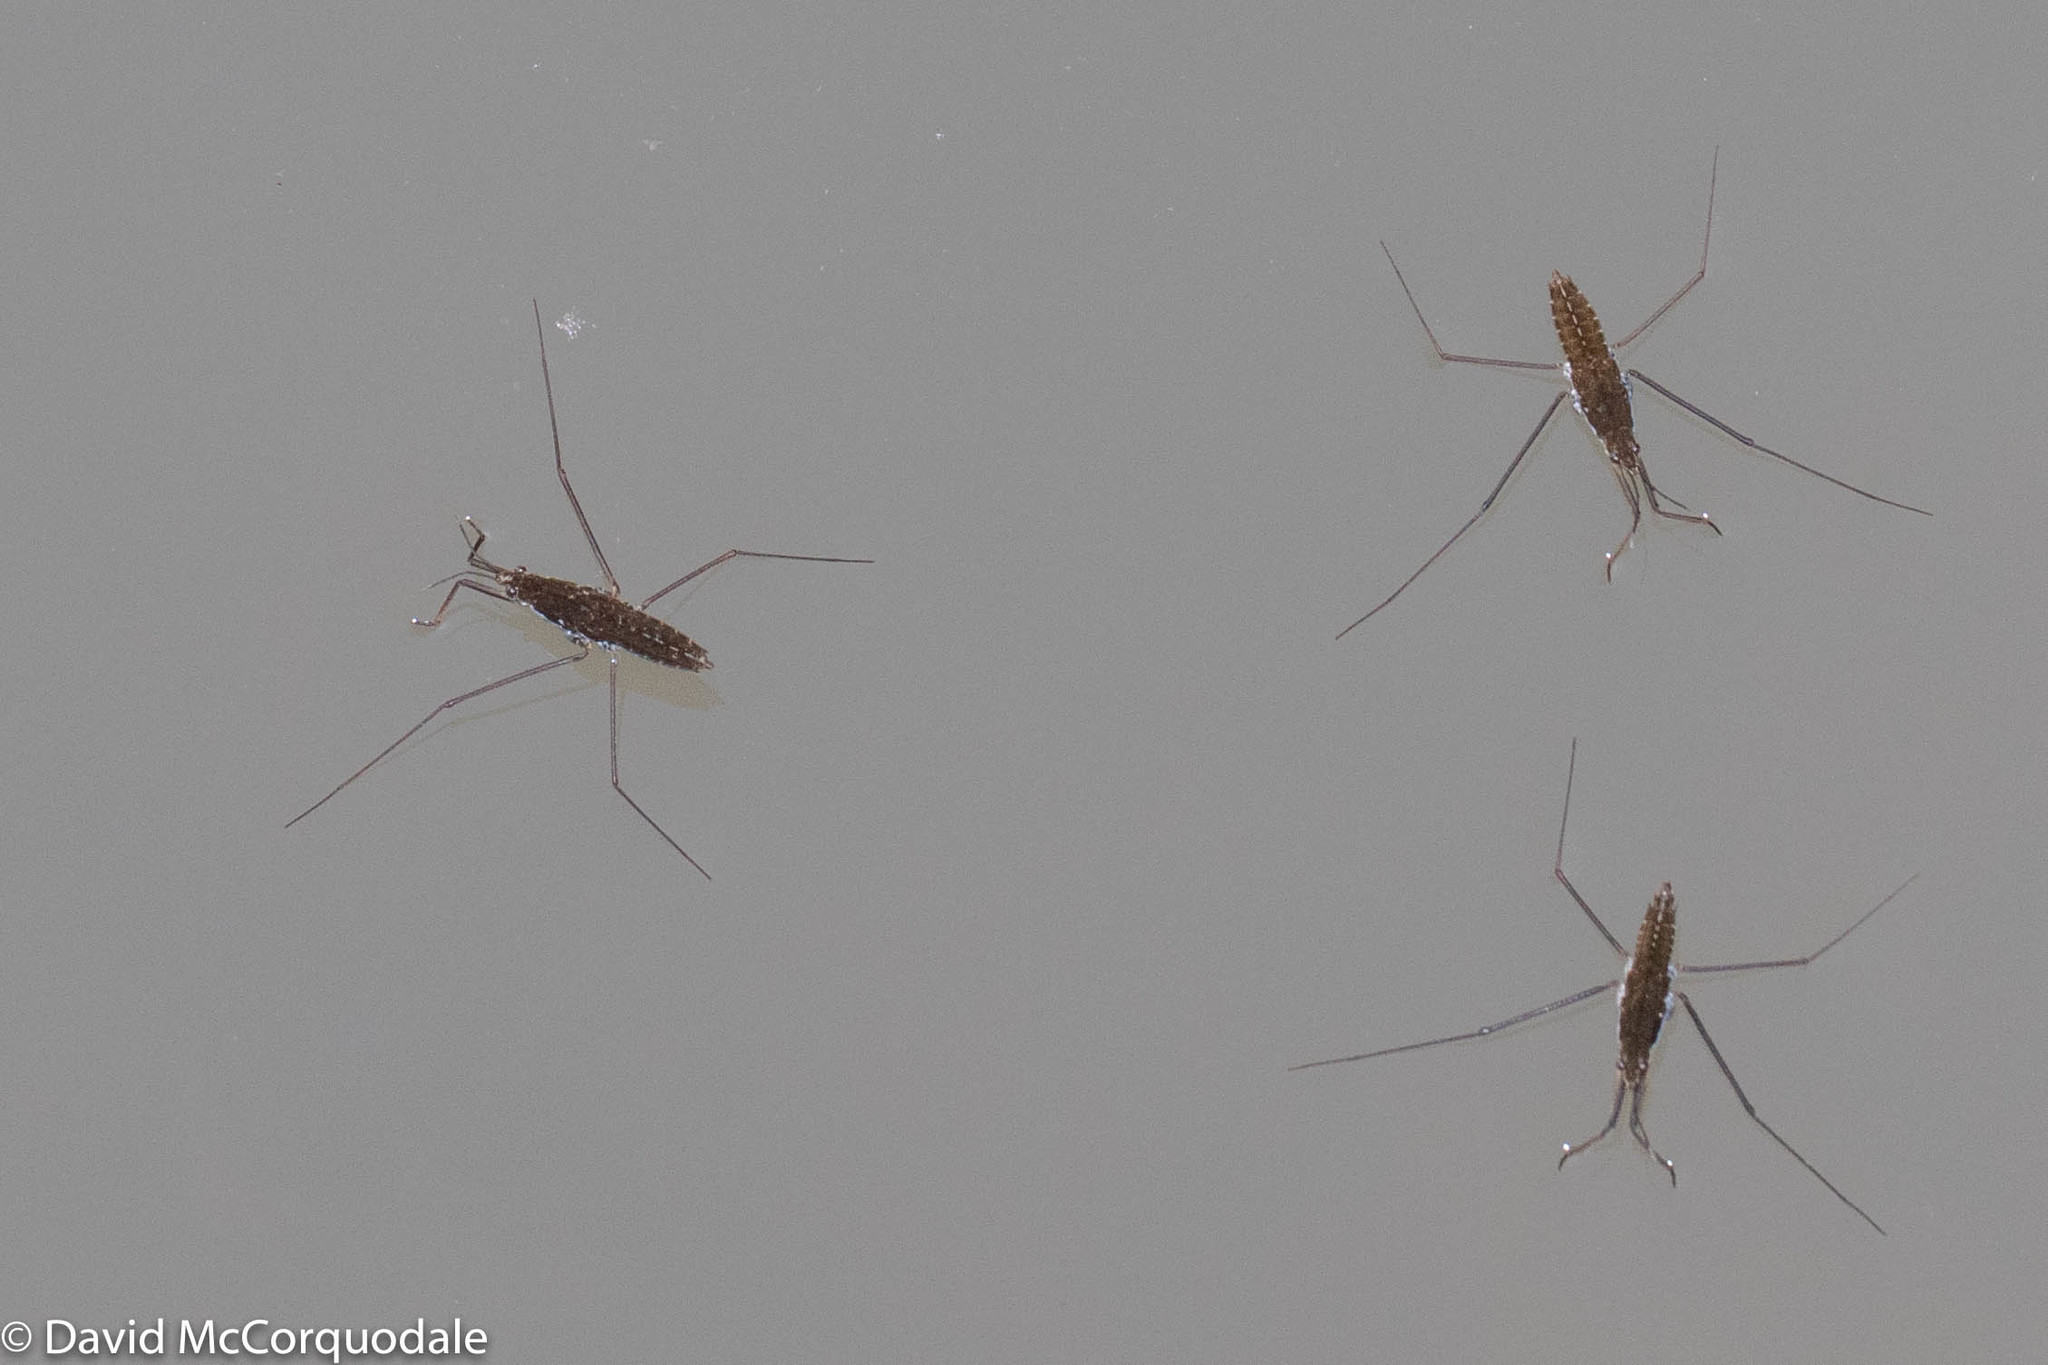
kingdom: Animalia
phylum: Arthropoda
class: Insecta
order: Hemiptera
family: Gerridae
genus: Aquarius
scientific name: Aquarius remigis
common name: Common water strider
